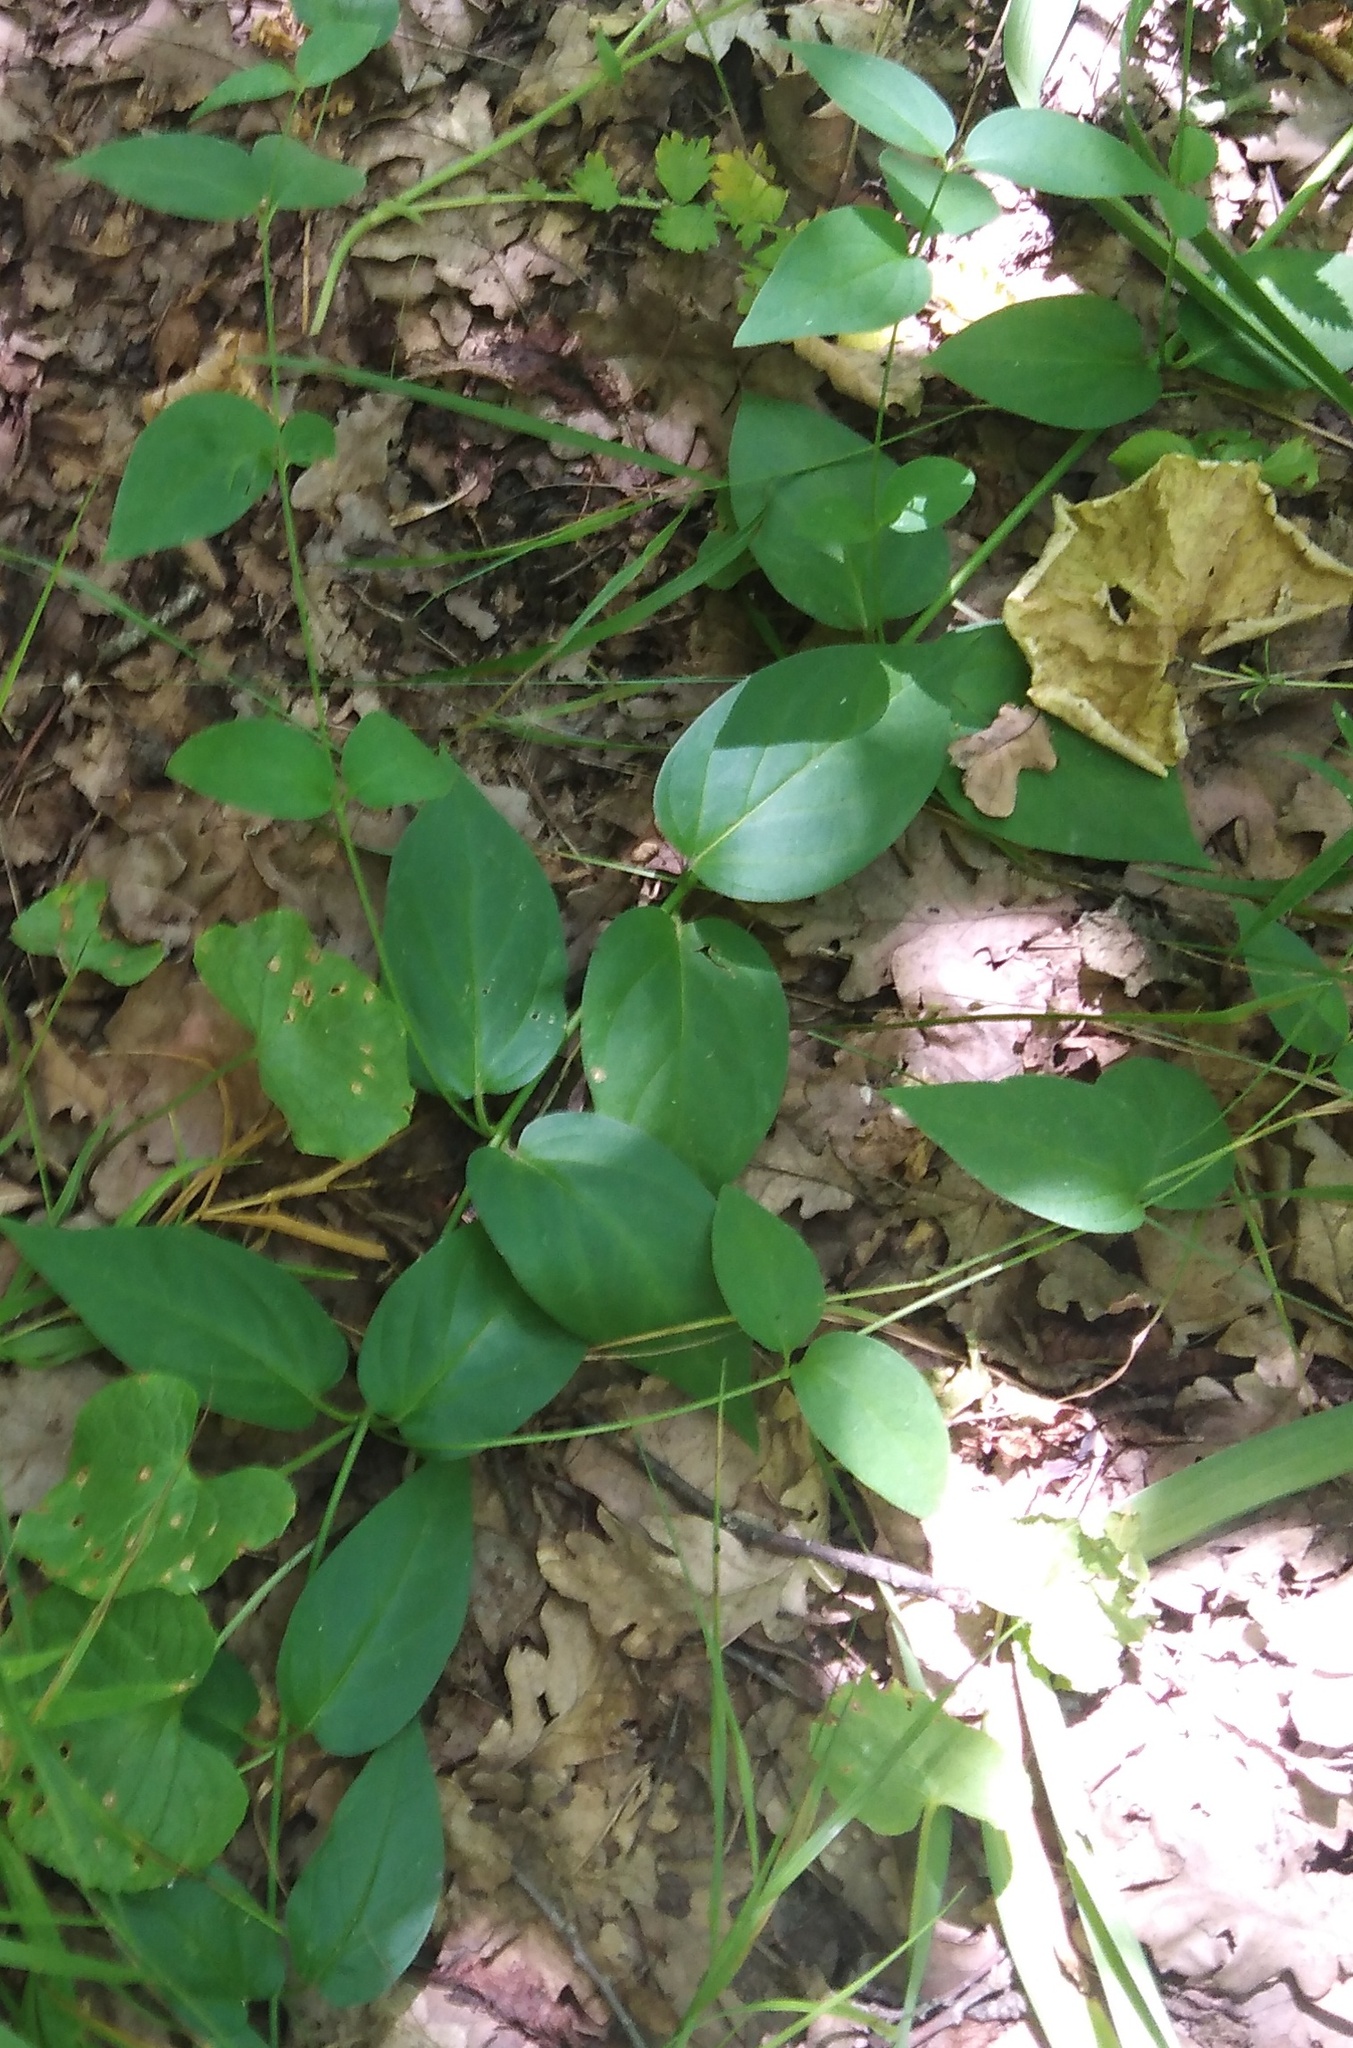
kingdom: Plantae
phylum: Tracheophyta
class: Magnoliopsida
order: Gentianales
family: Apocynaceae
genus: Vincetoxicum
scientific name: Vincetoxicum hirundinaria
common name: White swallowwort
